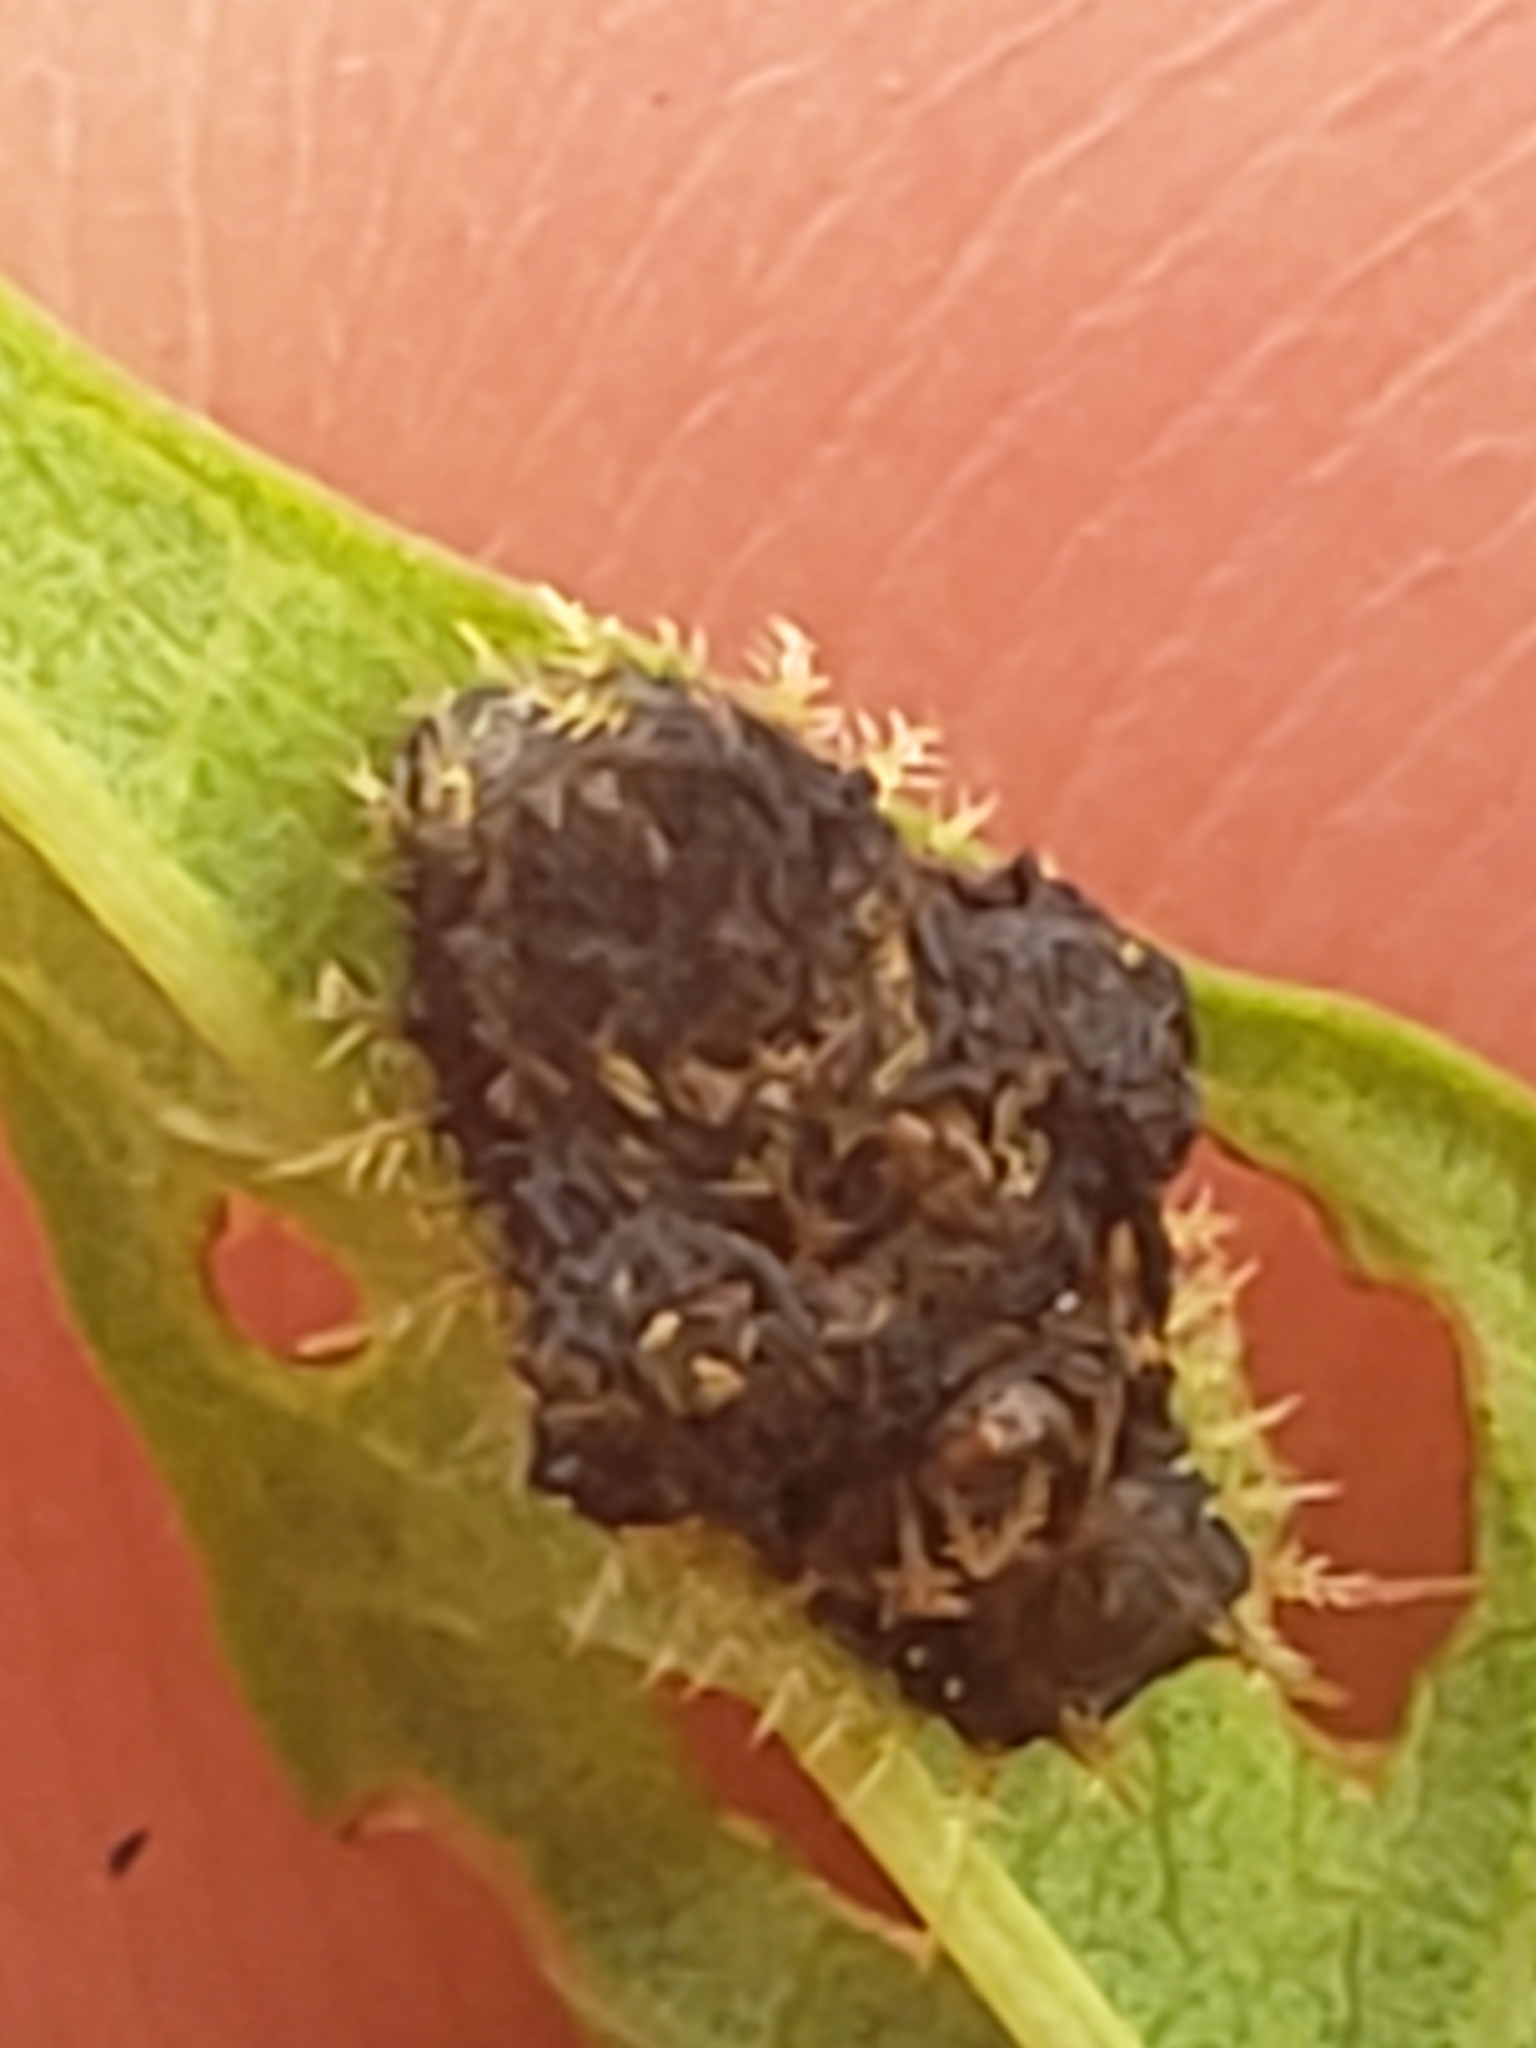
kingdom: Animalia
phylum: Arthropoda
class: Insecta
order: Coleoptera
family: Chrysomelidae
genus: Charidotella
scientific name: Charidotella sexpunctata
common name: Golden tortoise beetle
